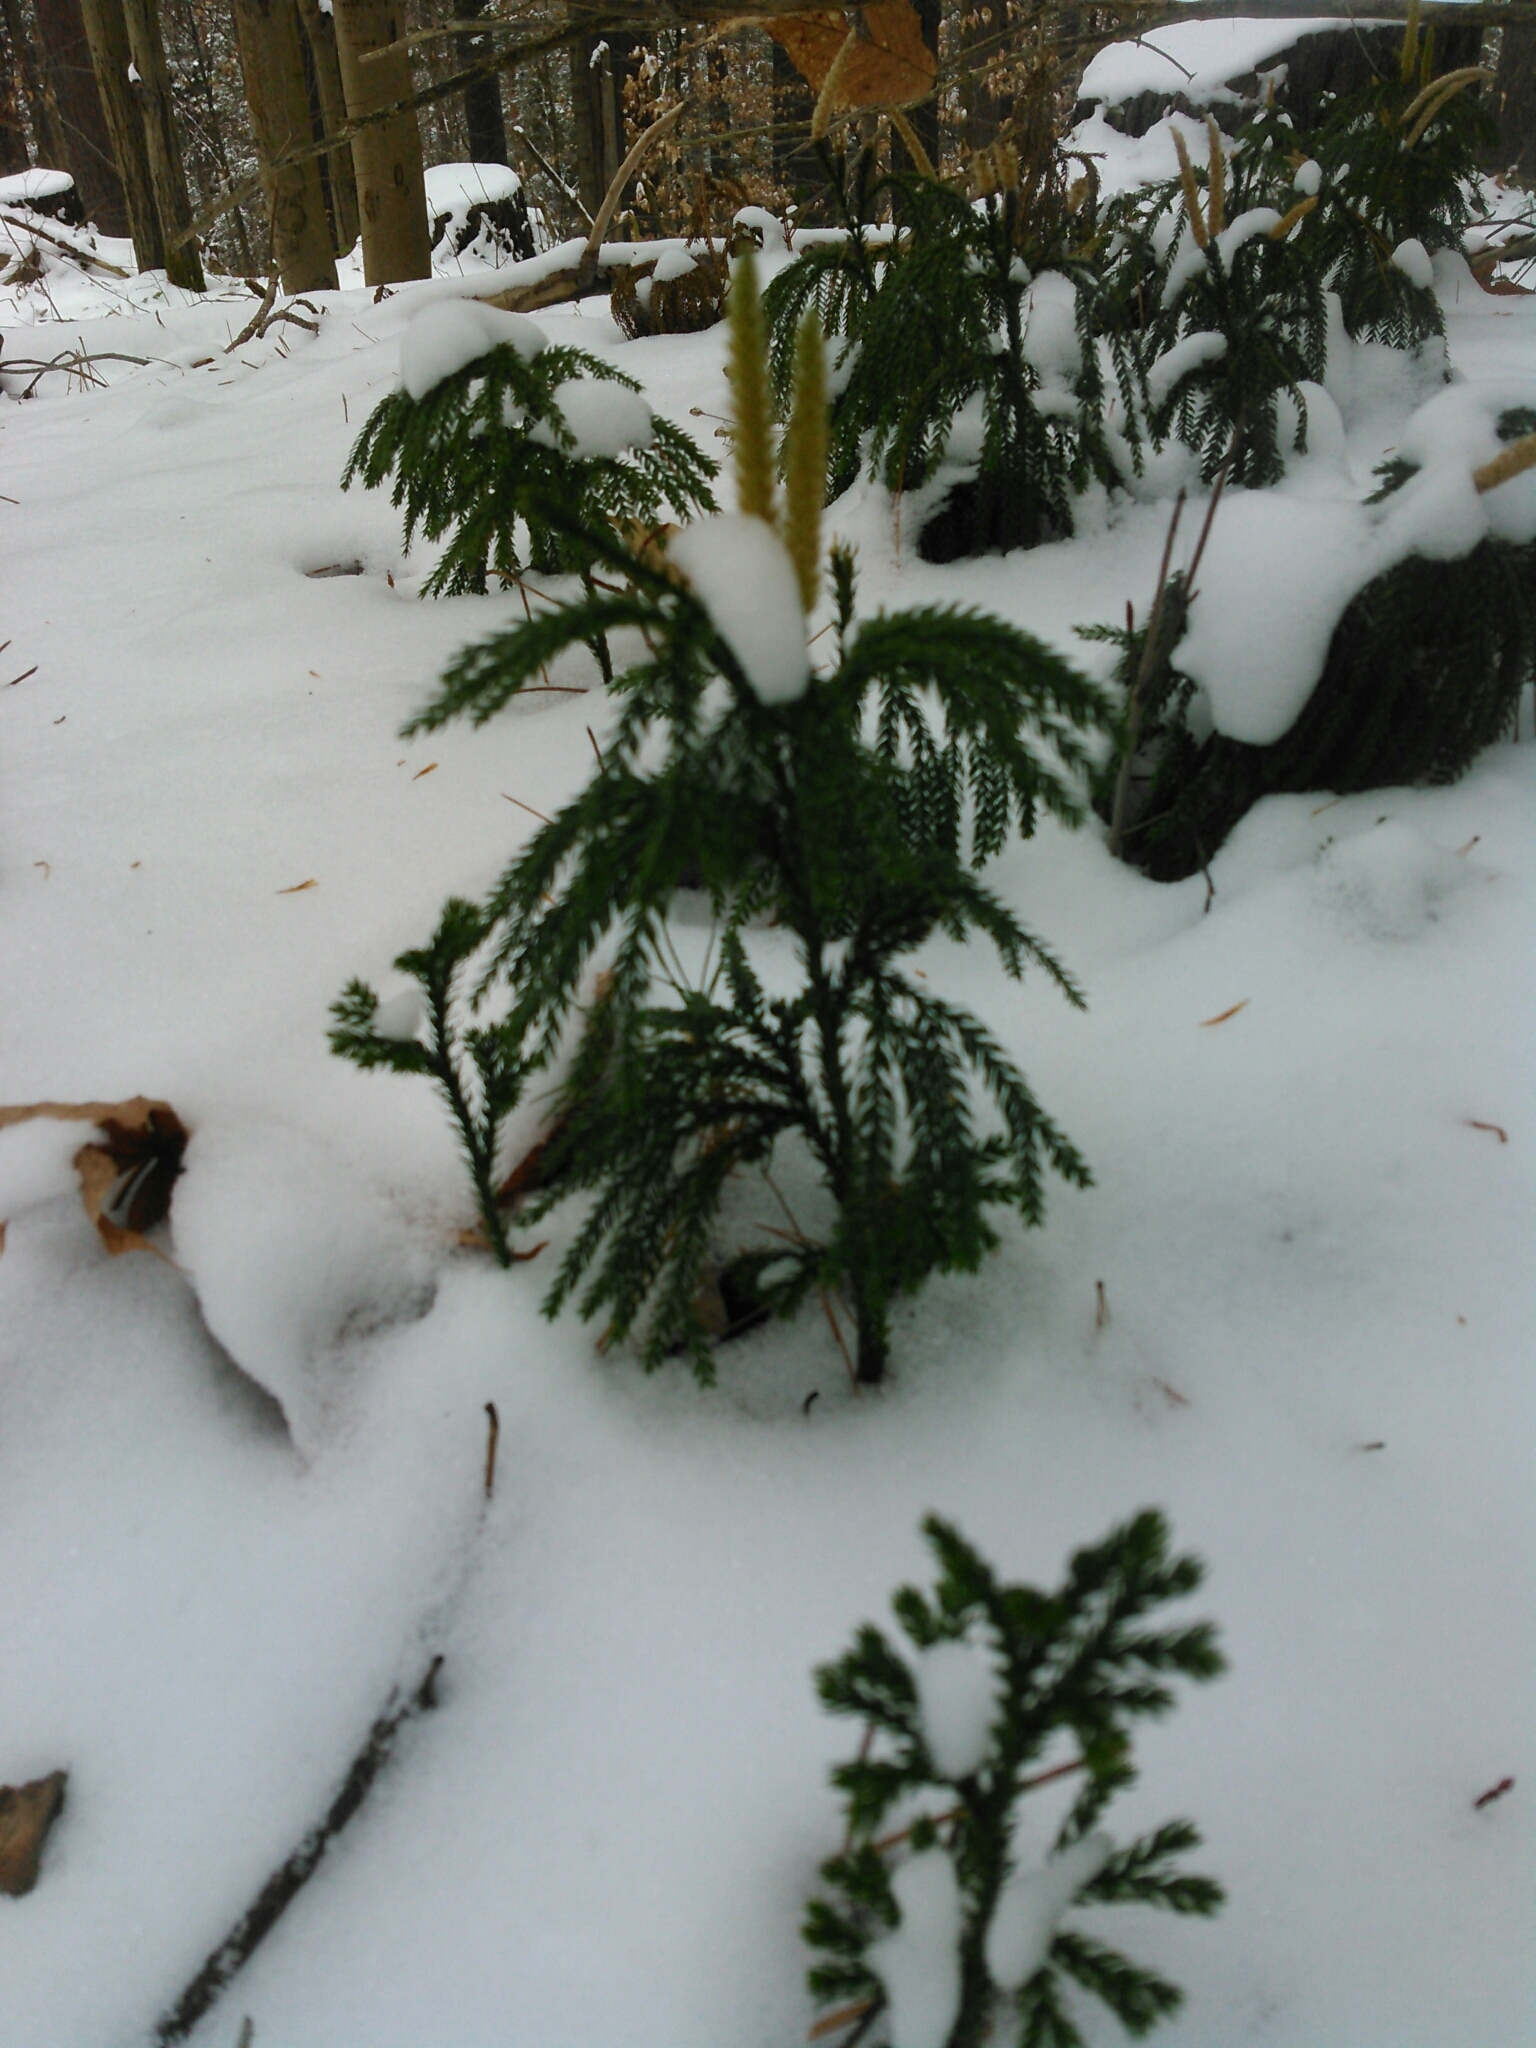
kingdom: Plantae
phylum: Tracheophyta
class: Lycopodiopsida
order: Lycopodiales
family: Lycopodiaceae
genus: Dendrolycopodium
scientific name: Dendrolycopodium obscurum
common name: Common ground-pine
